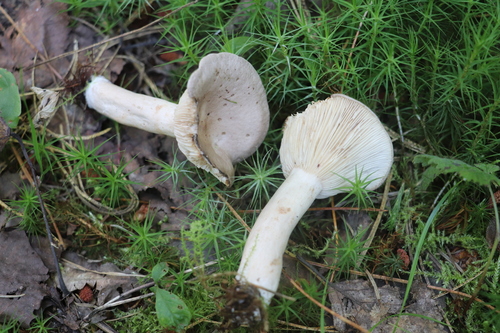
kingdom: Fungi
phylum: Basidiomycota
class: Agaricomycetes
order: Russulales
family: Russulaceae
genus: Lactarius
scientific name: Lactarius vietus
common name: Grey milk-cap
